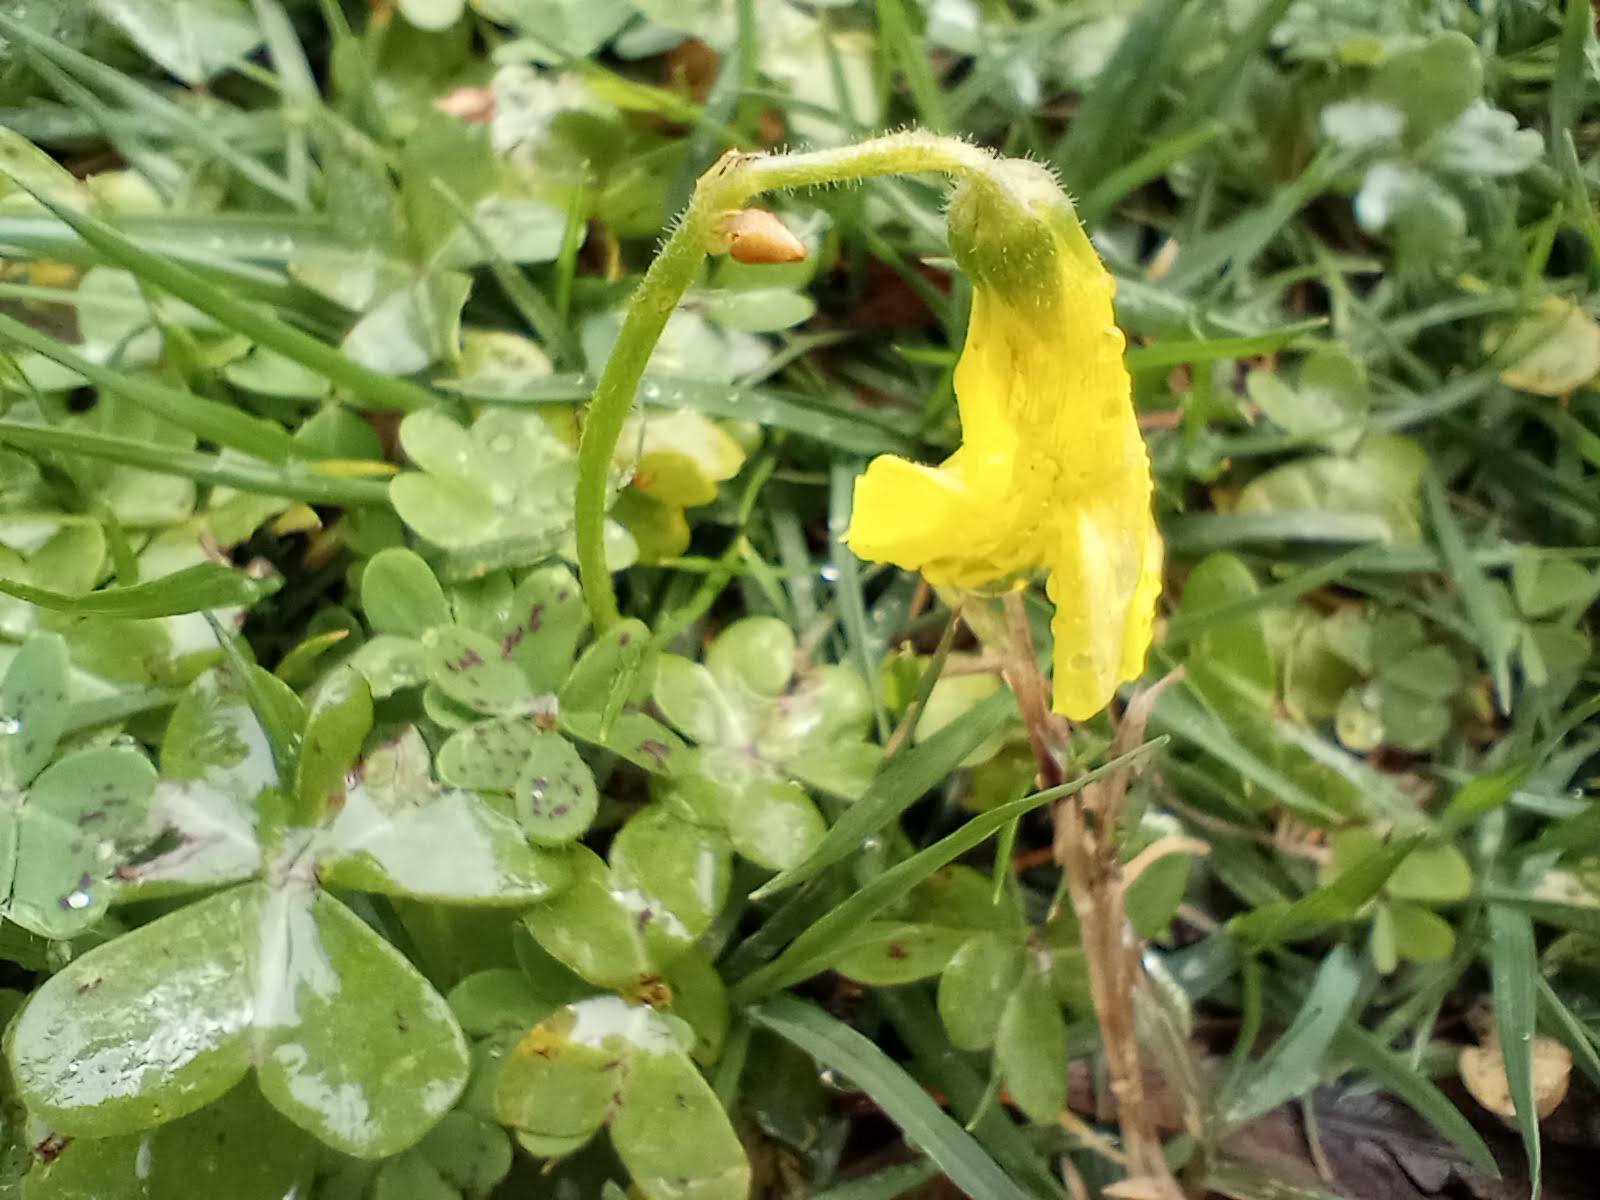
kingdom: Plantae
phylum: Tracheophyta
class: Magnoliopsida
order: Oxalidales
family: Oxalidaceae
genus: Oxalis
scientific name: Oxalis pes-caprae
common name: Bermuda-buttercup
